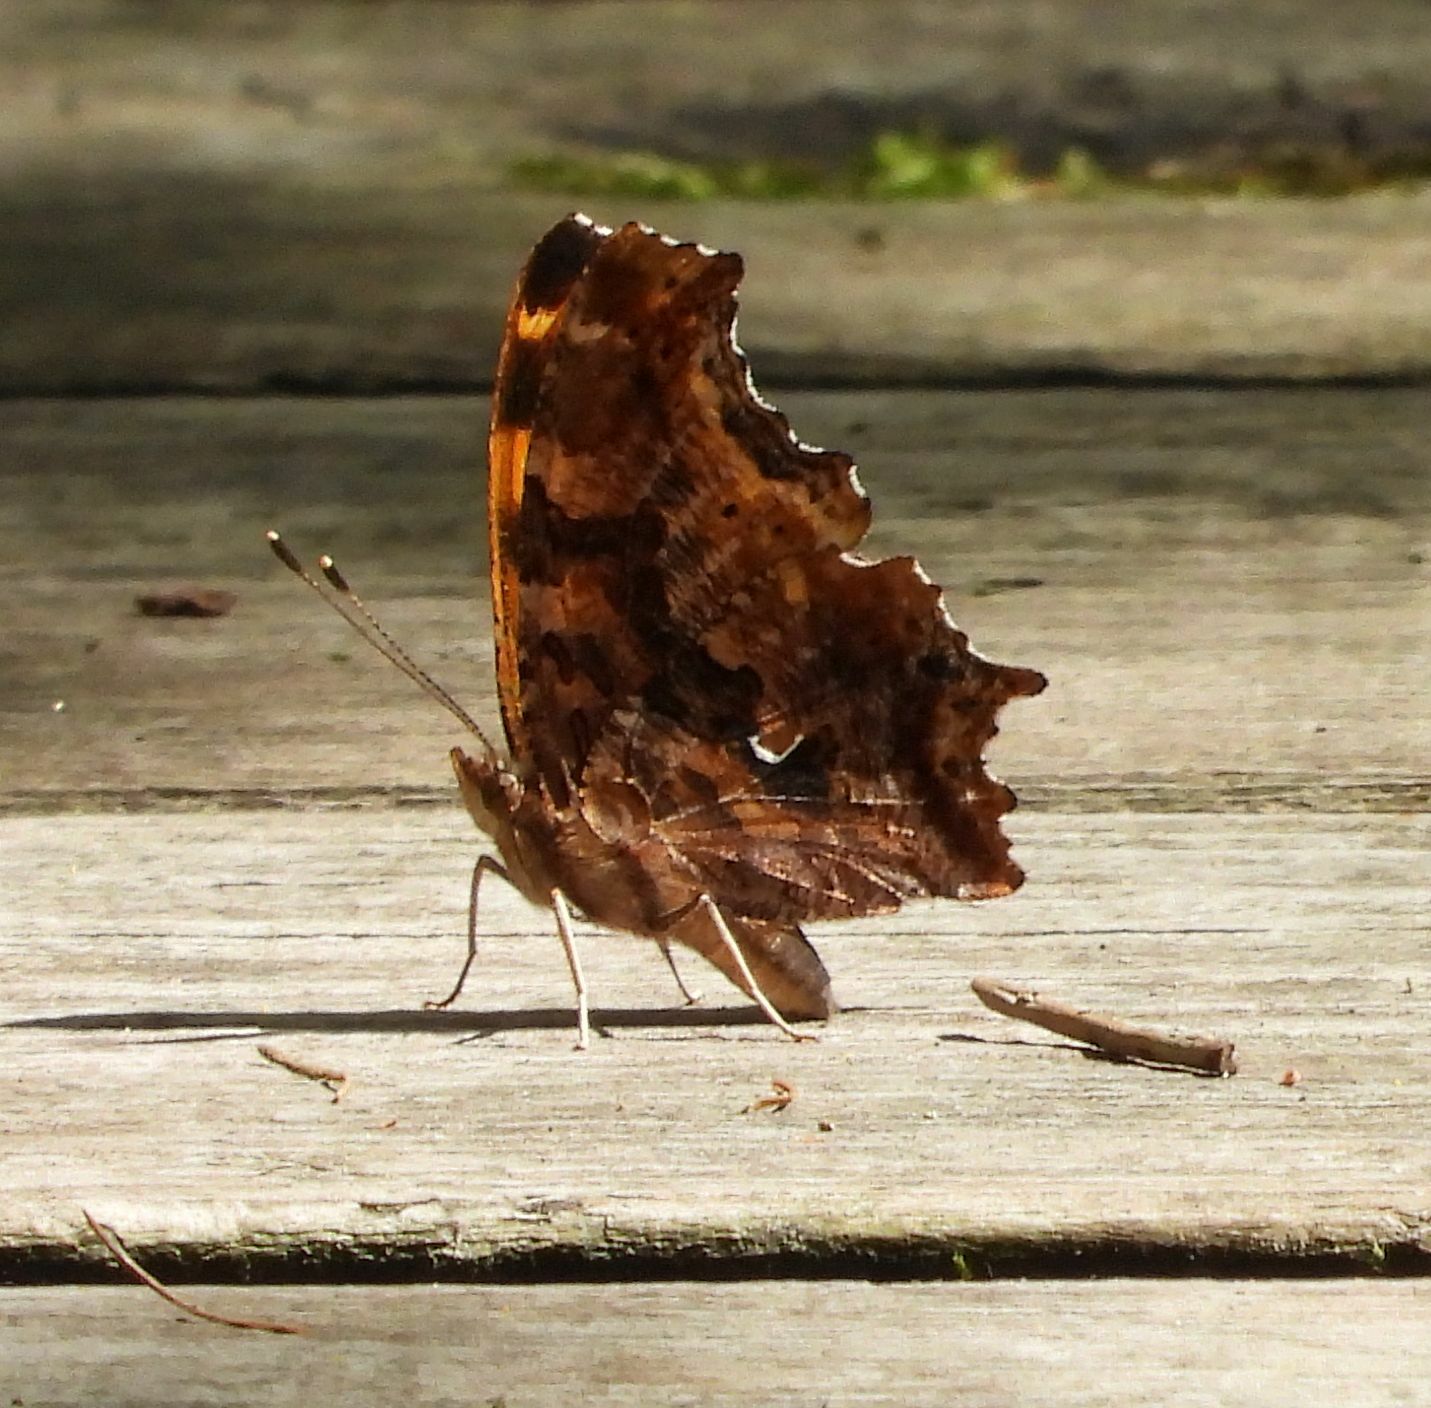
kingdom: Animalia
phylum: Arthropoda
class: Insecta
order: Lepidoptera
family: Nymphalidae
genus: Polygonia
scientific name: Polygonia comma
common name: Eastern comma
